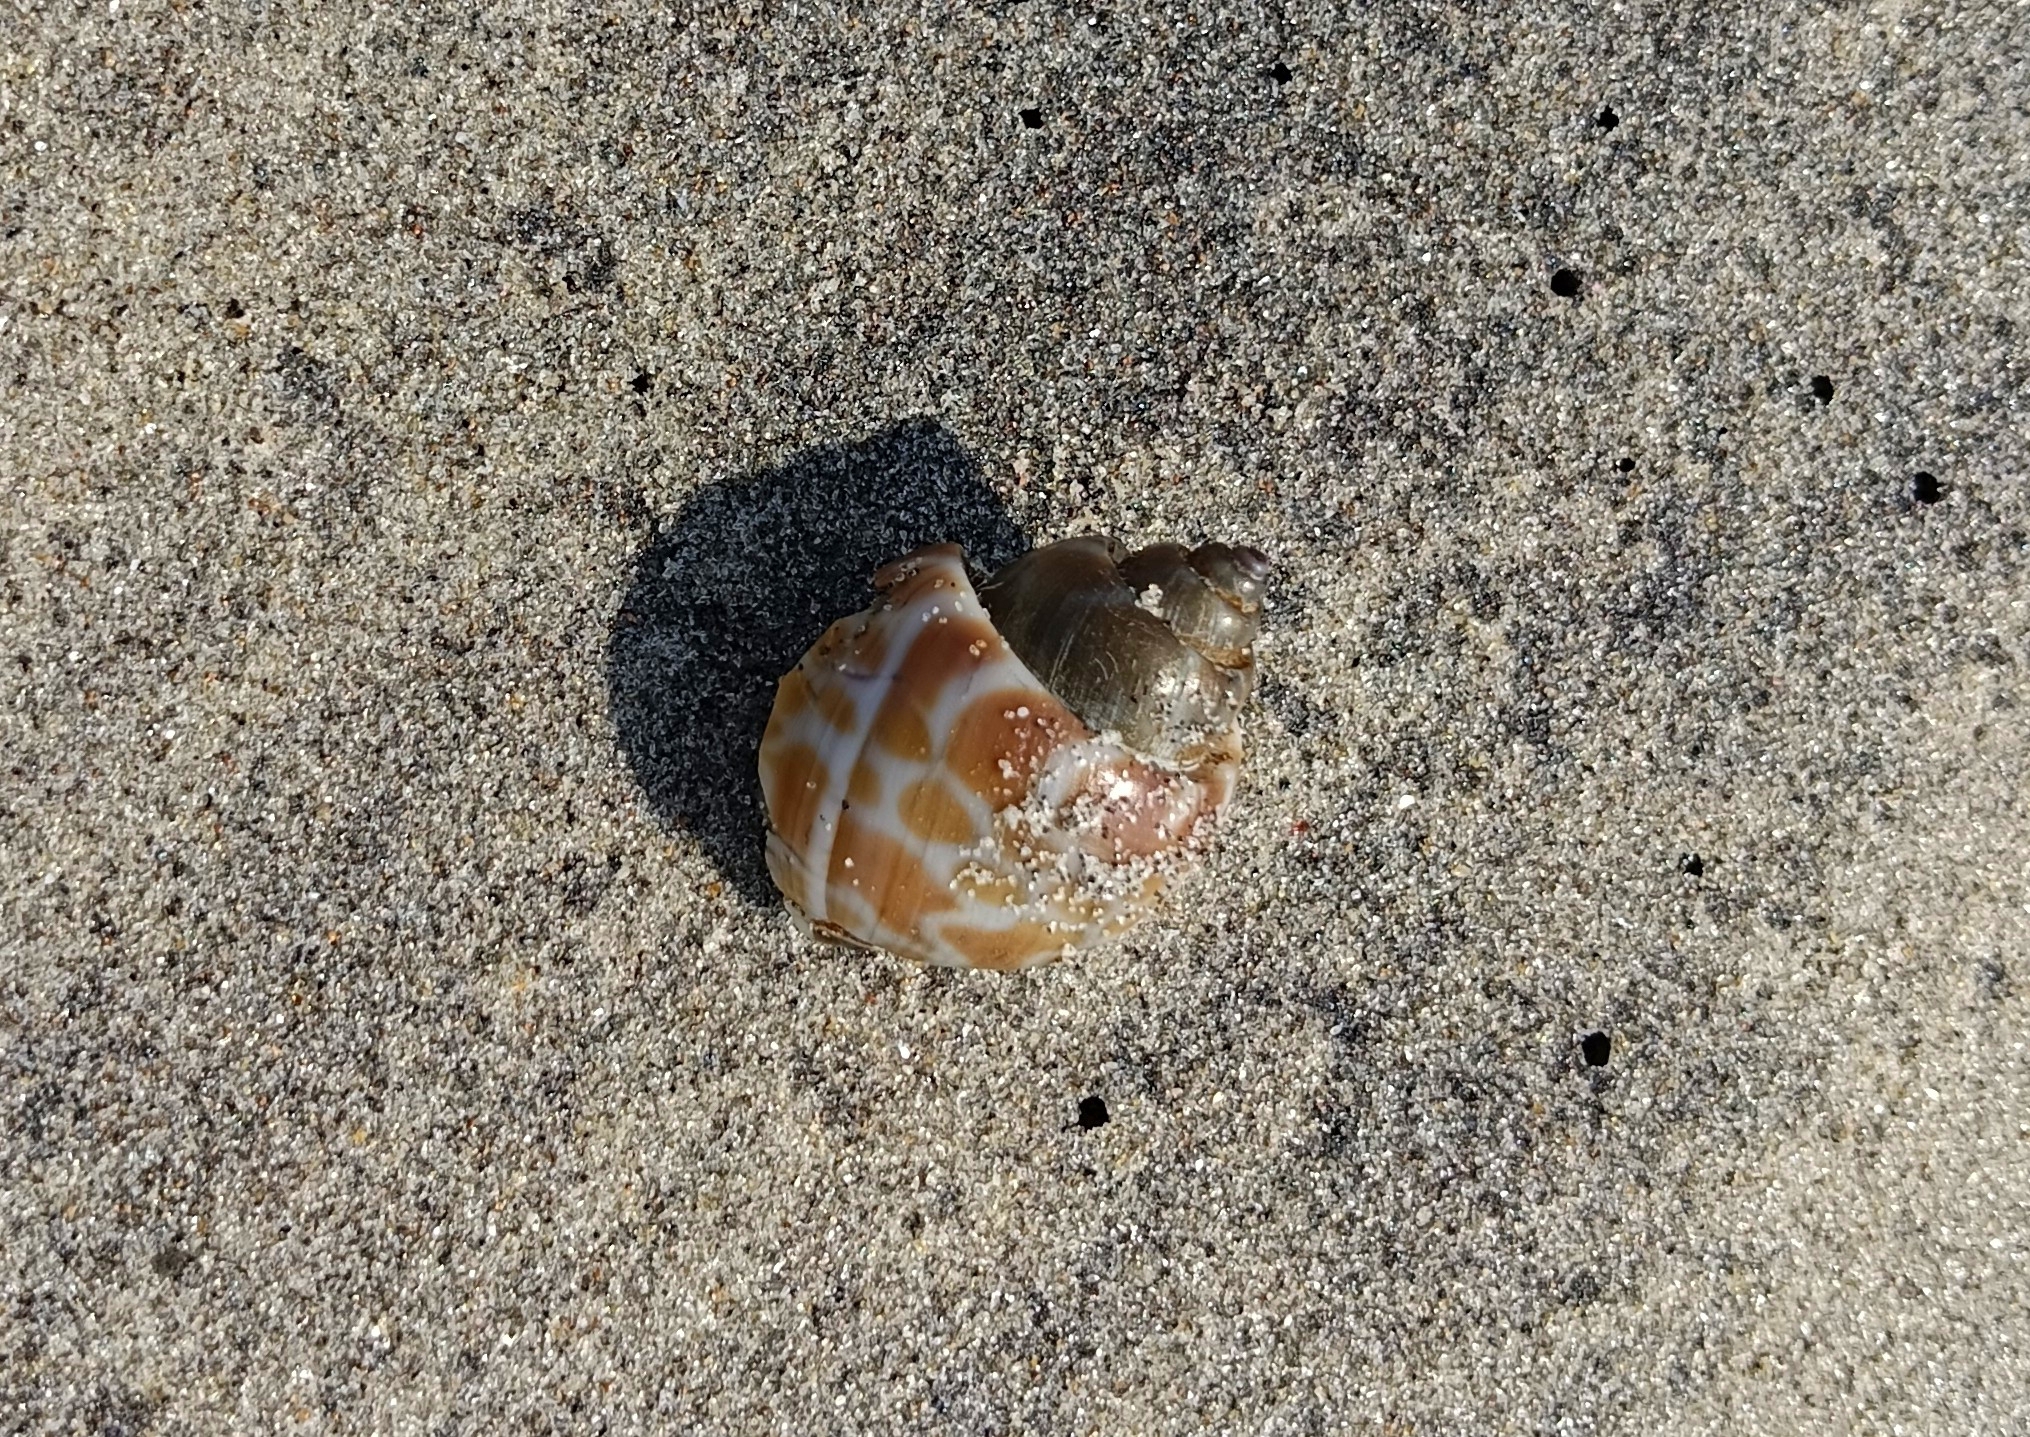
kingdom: Animalia
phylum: Mollusca
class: Gastropoda
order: Neogastropoda
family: Babyloniidae
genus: Babylonia
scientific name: Babylonia spirata
